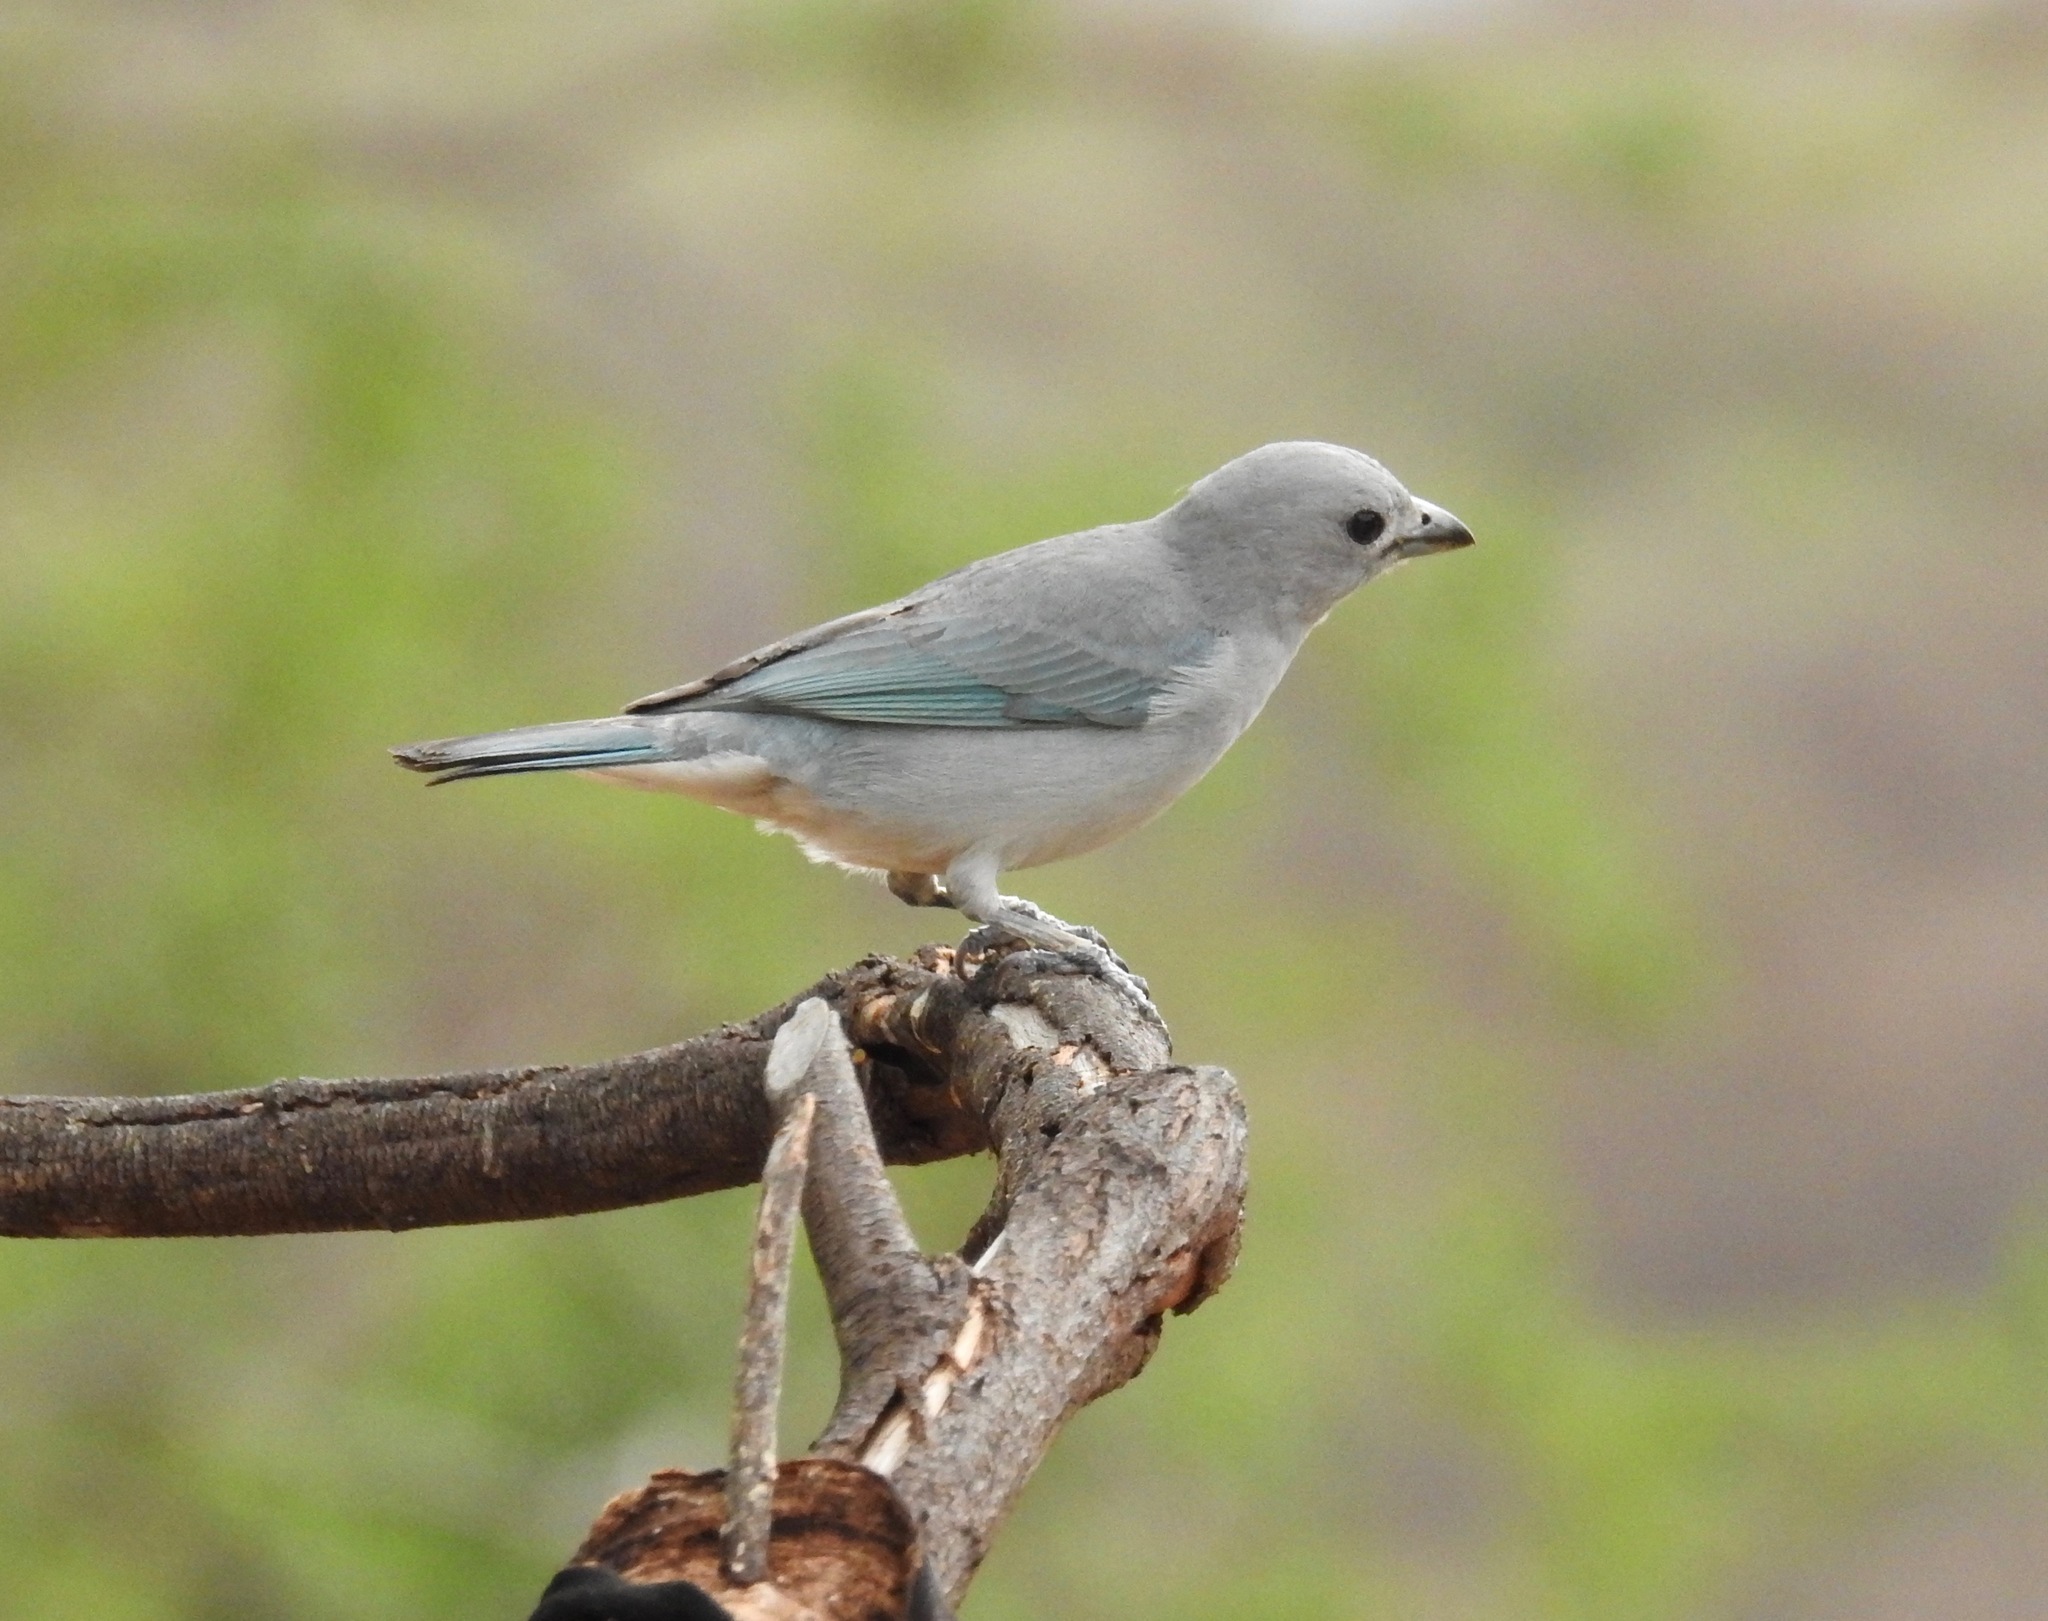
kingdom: Animalia
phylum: Chordata
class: Aves
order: Passeriformes
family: Thraupidae
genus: Thraupis
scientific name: Thraupis sayaca
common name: Sayaca tanager
